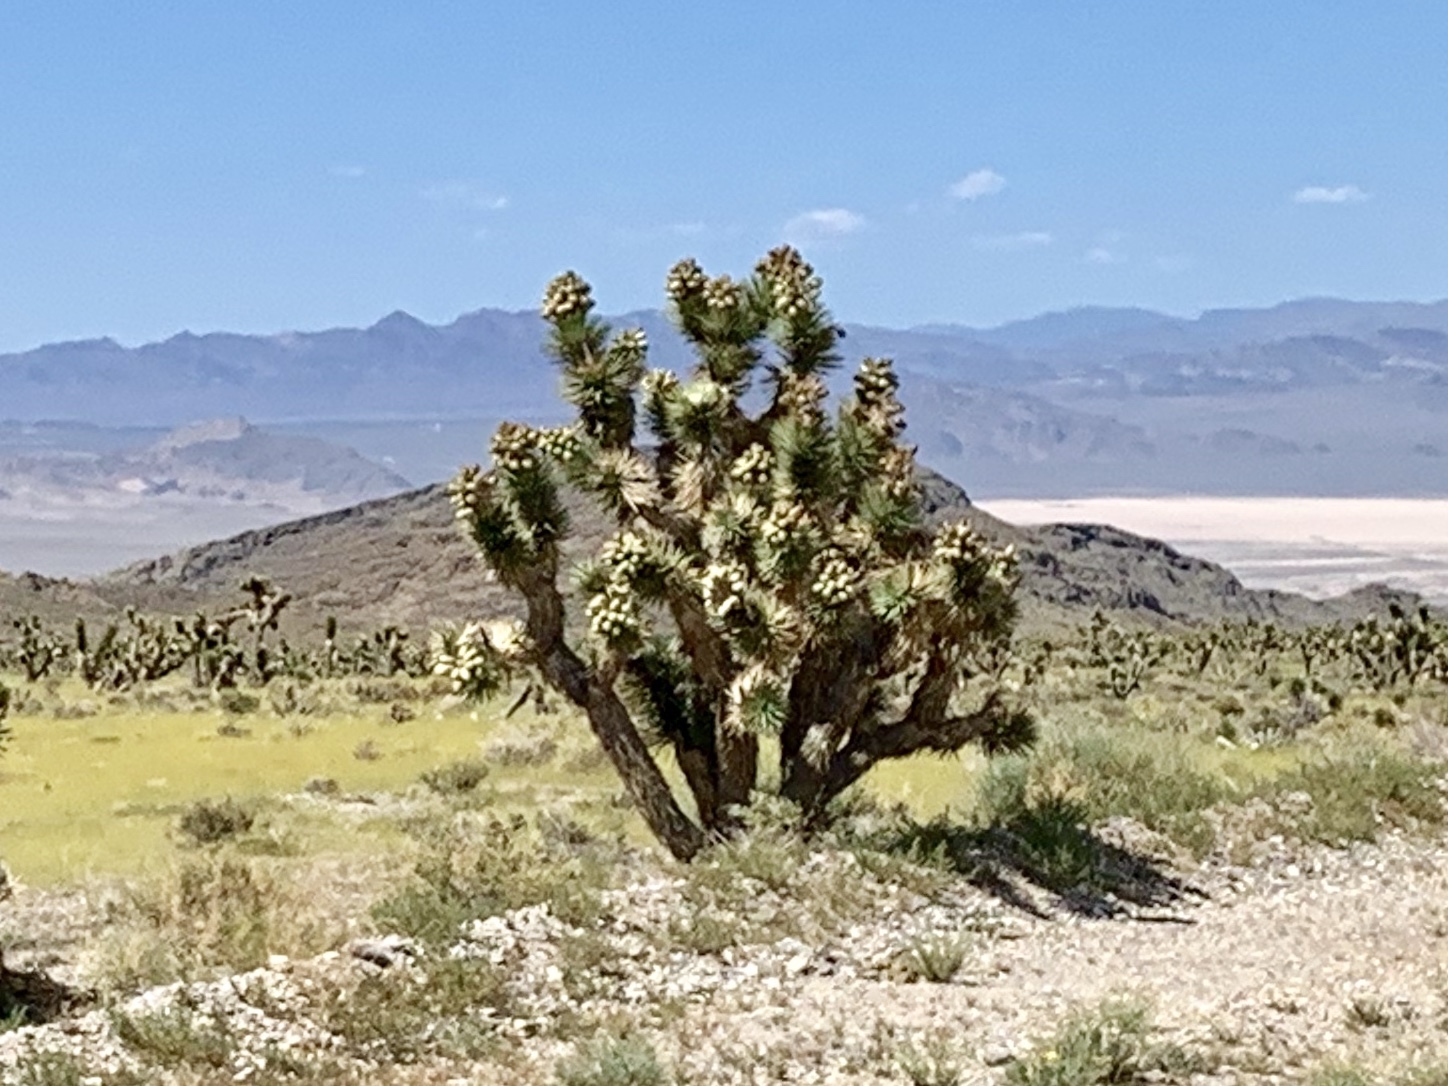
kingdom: Plantae
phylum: Tracheophyta
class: Liliopsida
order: Asparagales
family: Asparagaceae
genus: Yucca
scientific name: Yucca brevifolia
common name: Joshua tree
